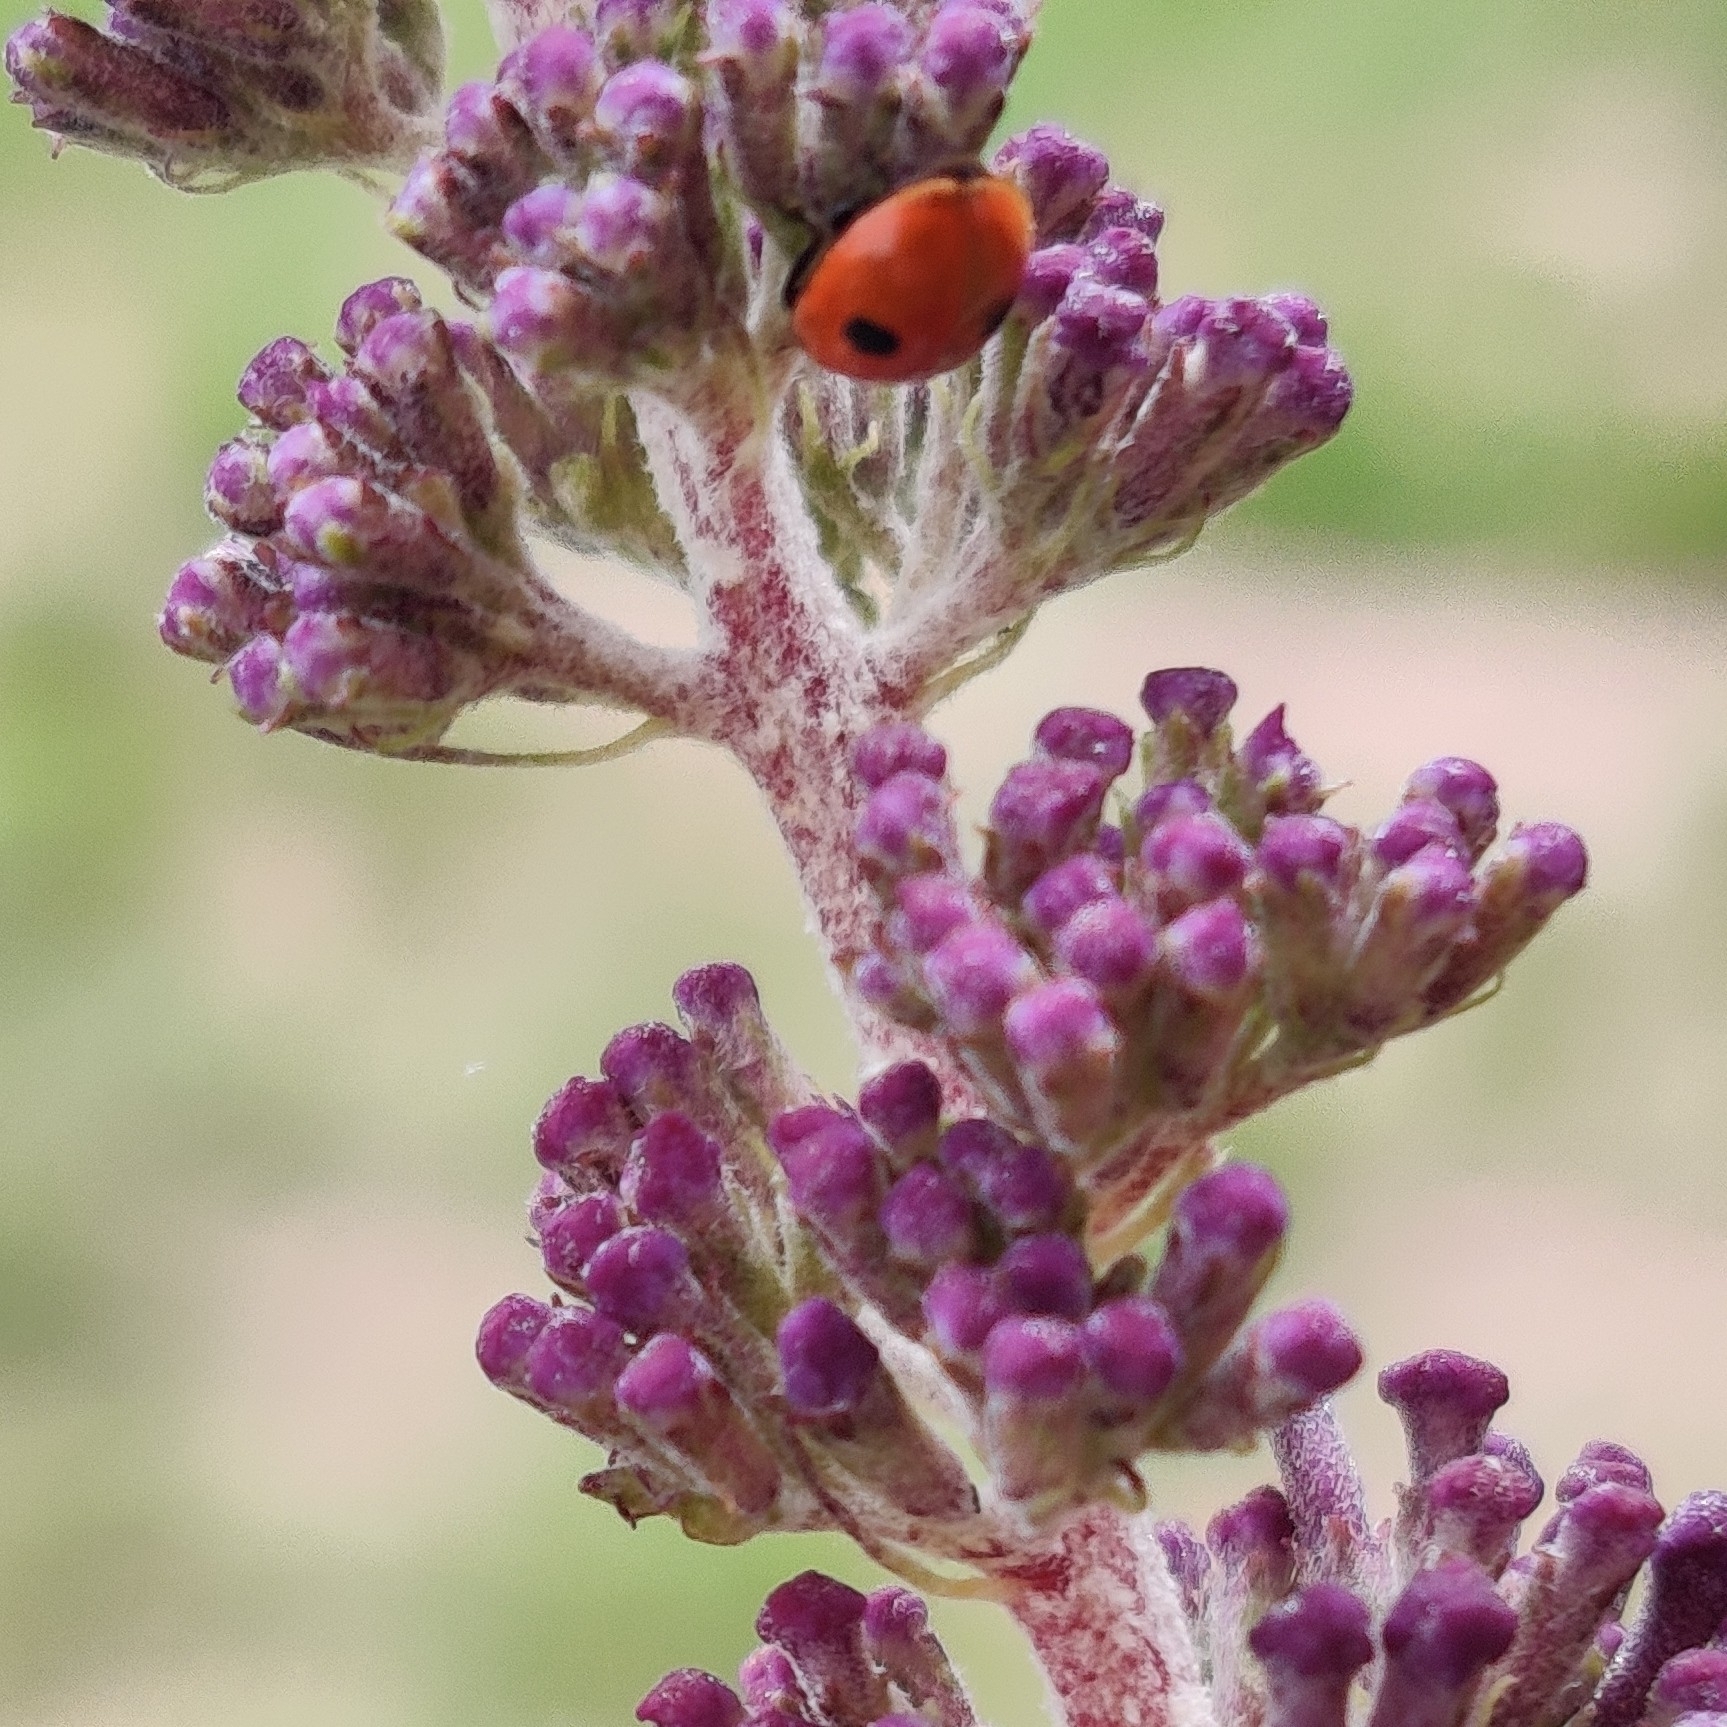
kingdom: Animalia
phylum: Arthropoda
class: Insecta
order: Coleoptera
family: Coccinellidae
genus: Adalia
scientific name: Adalia bipunctata
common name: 2-spot ladybird
